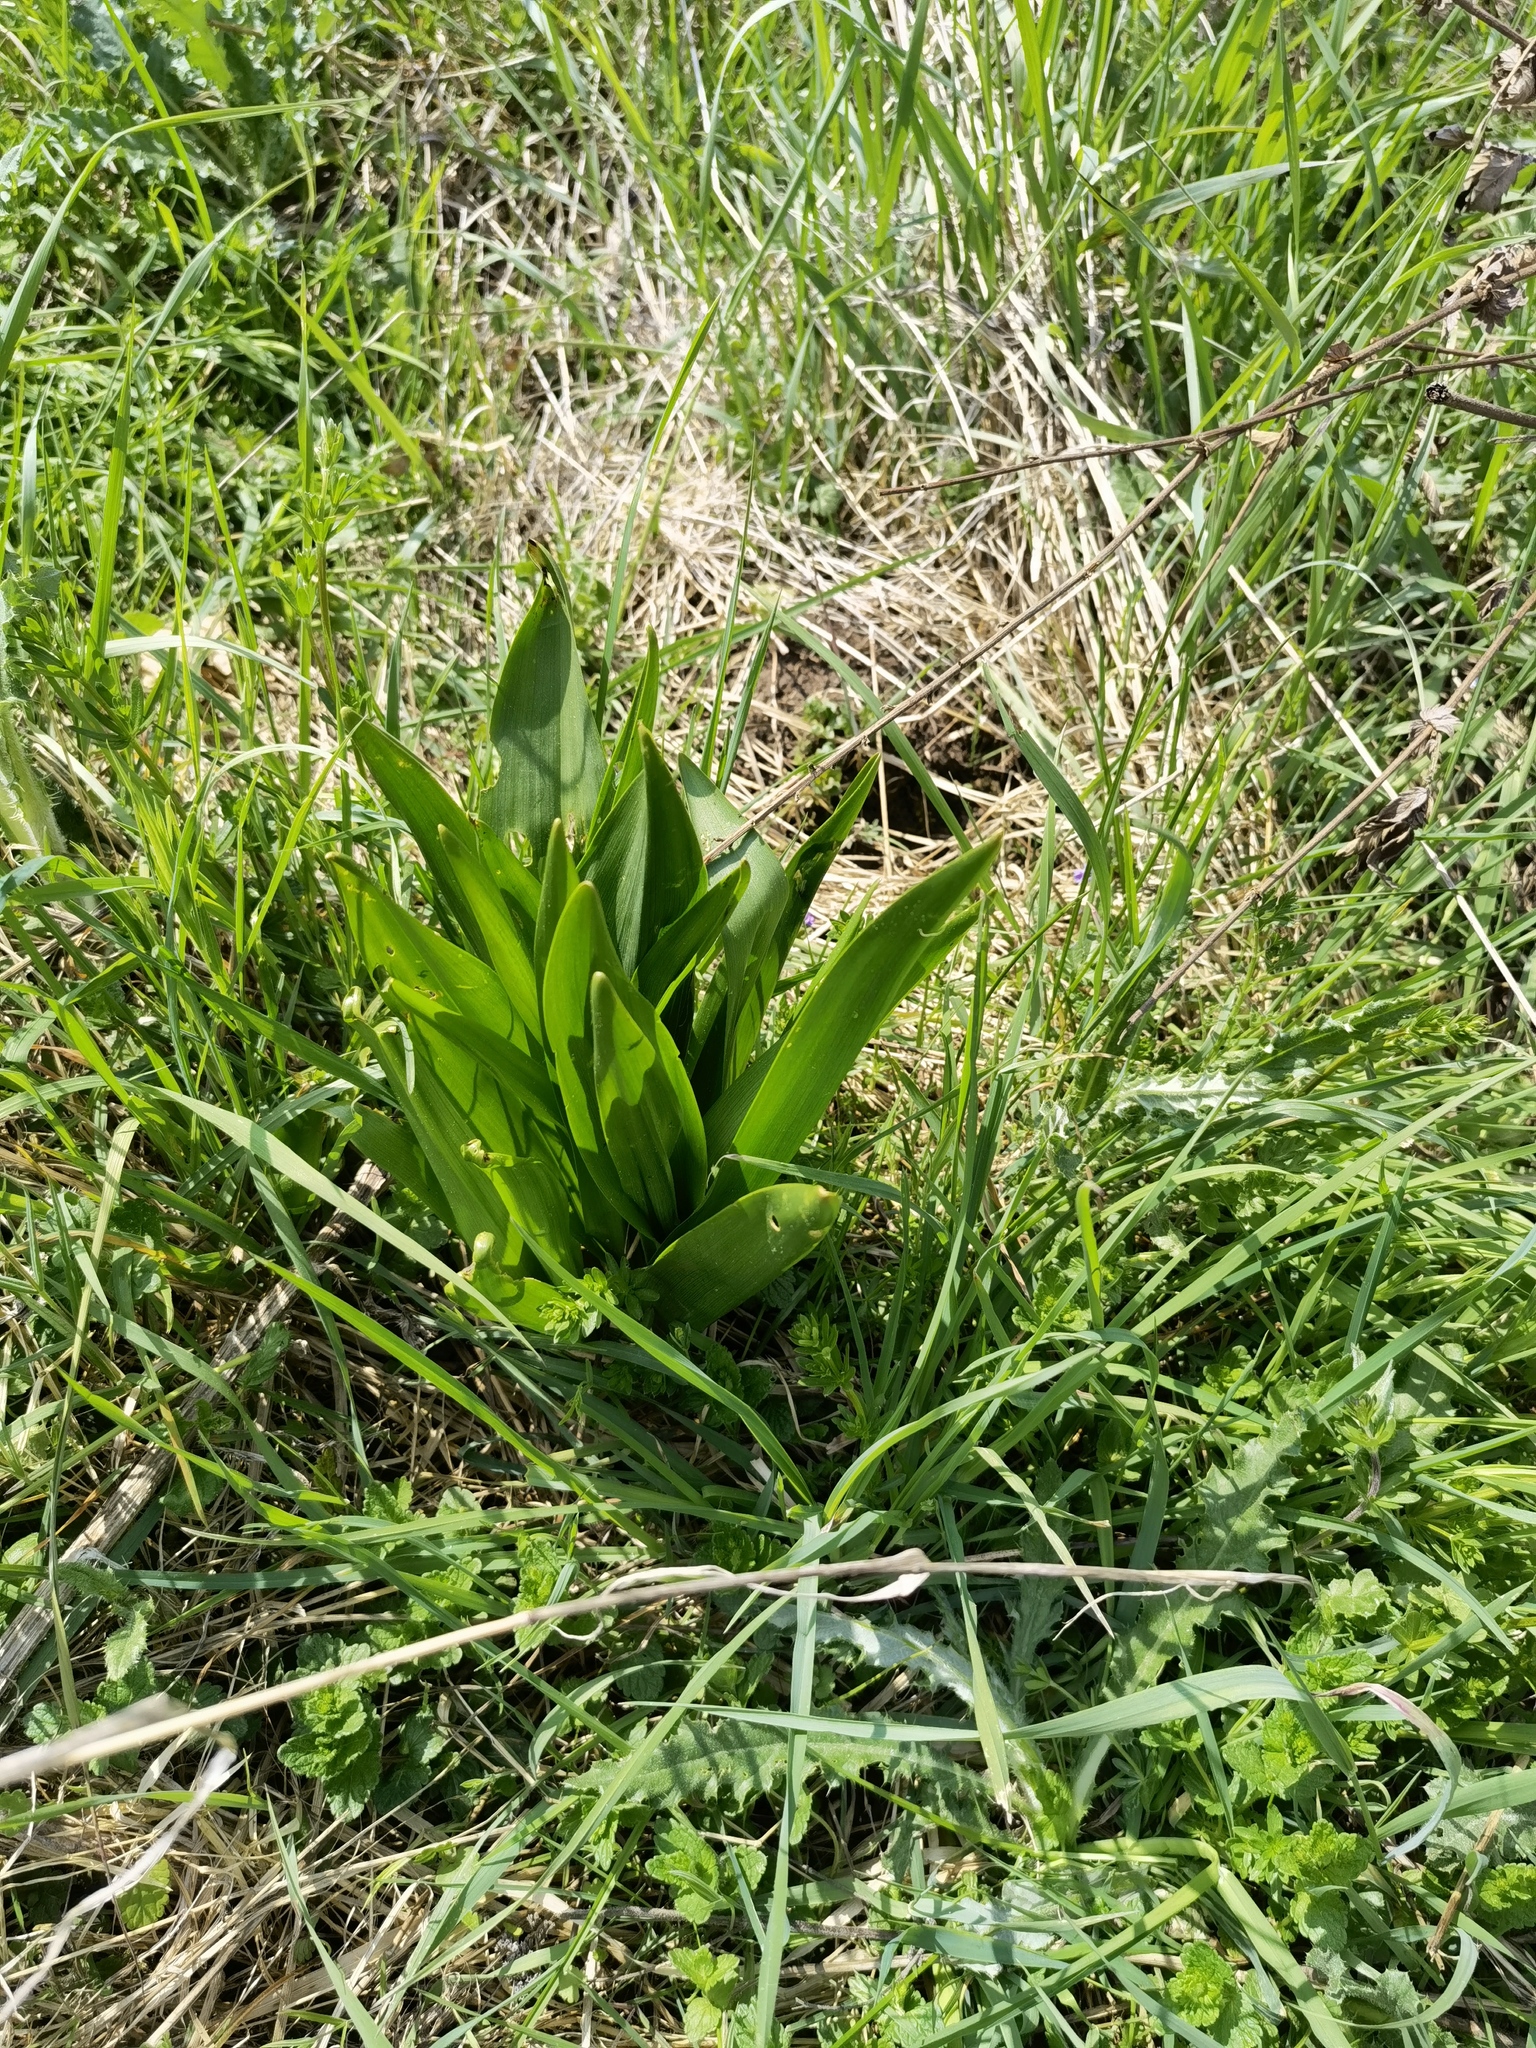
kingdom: Plantae
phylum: Tracheophyta
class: Liliopsida
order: Liliales
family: Colchicaceae
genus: Colchicum
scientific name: Colchicum autumnale
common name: Autumn crocus
